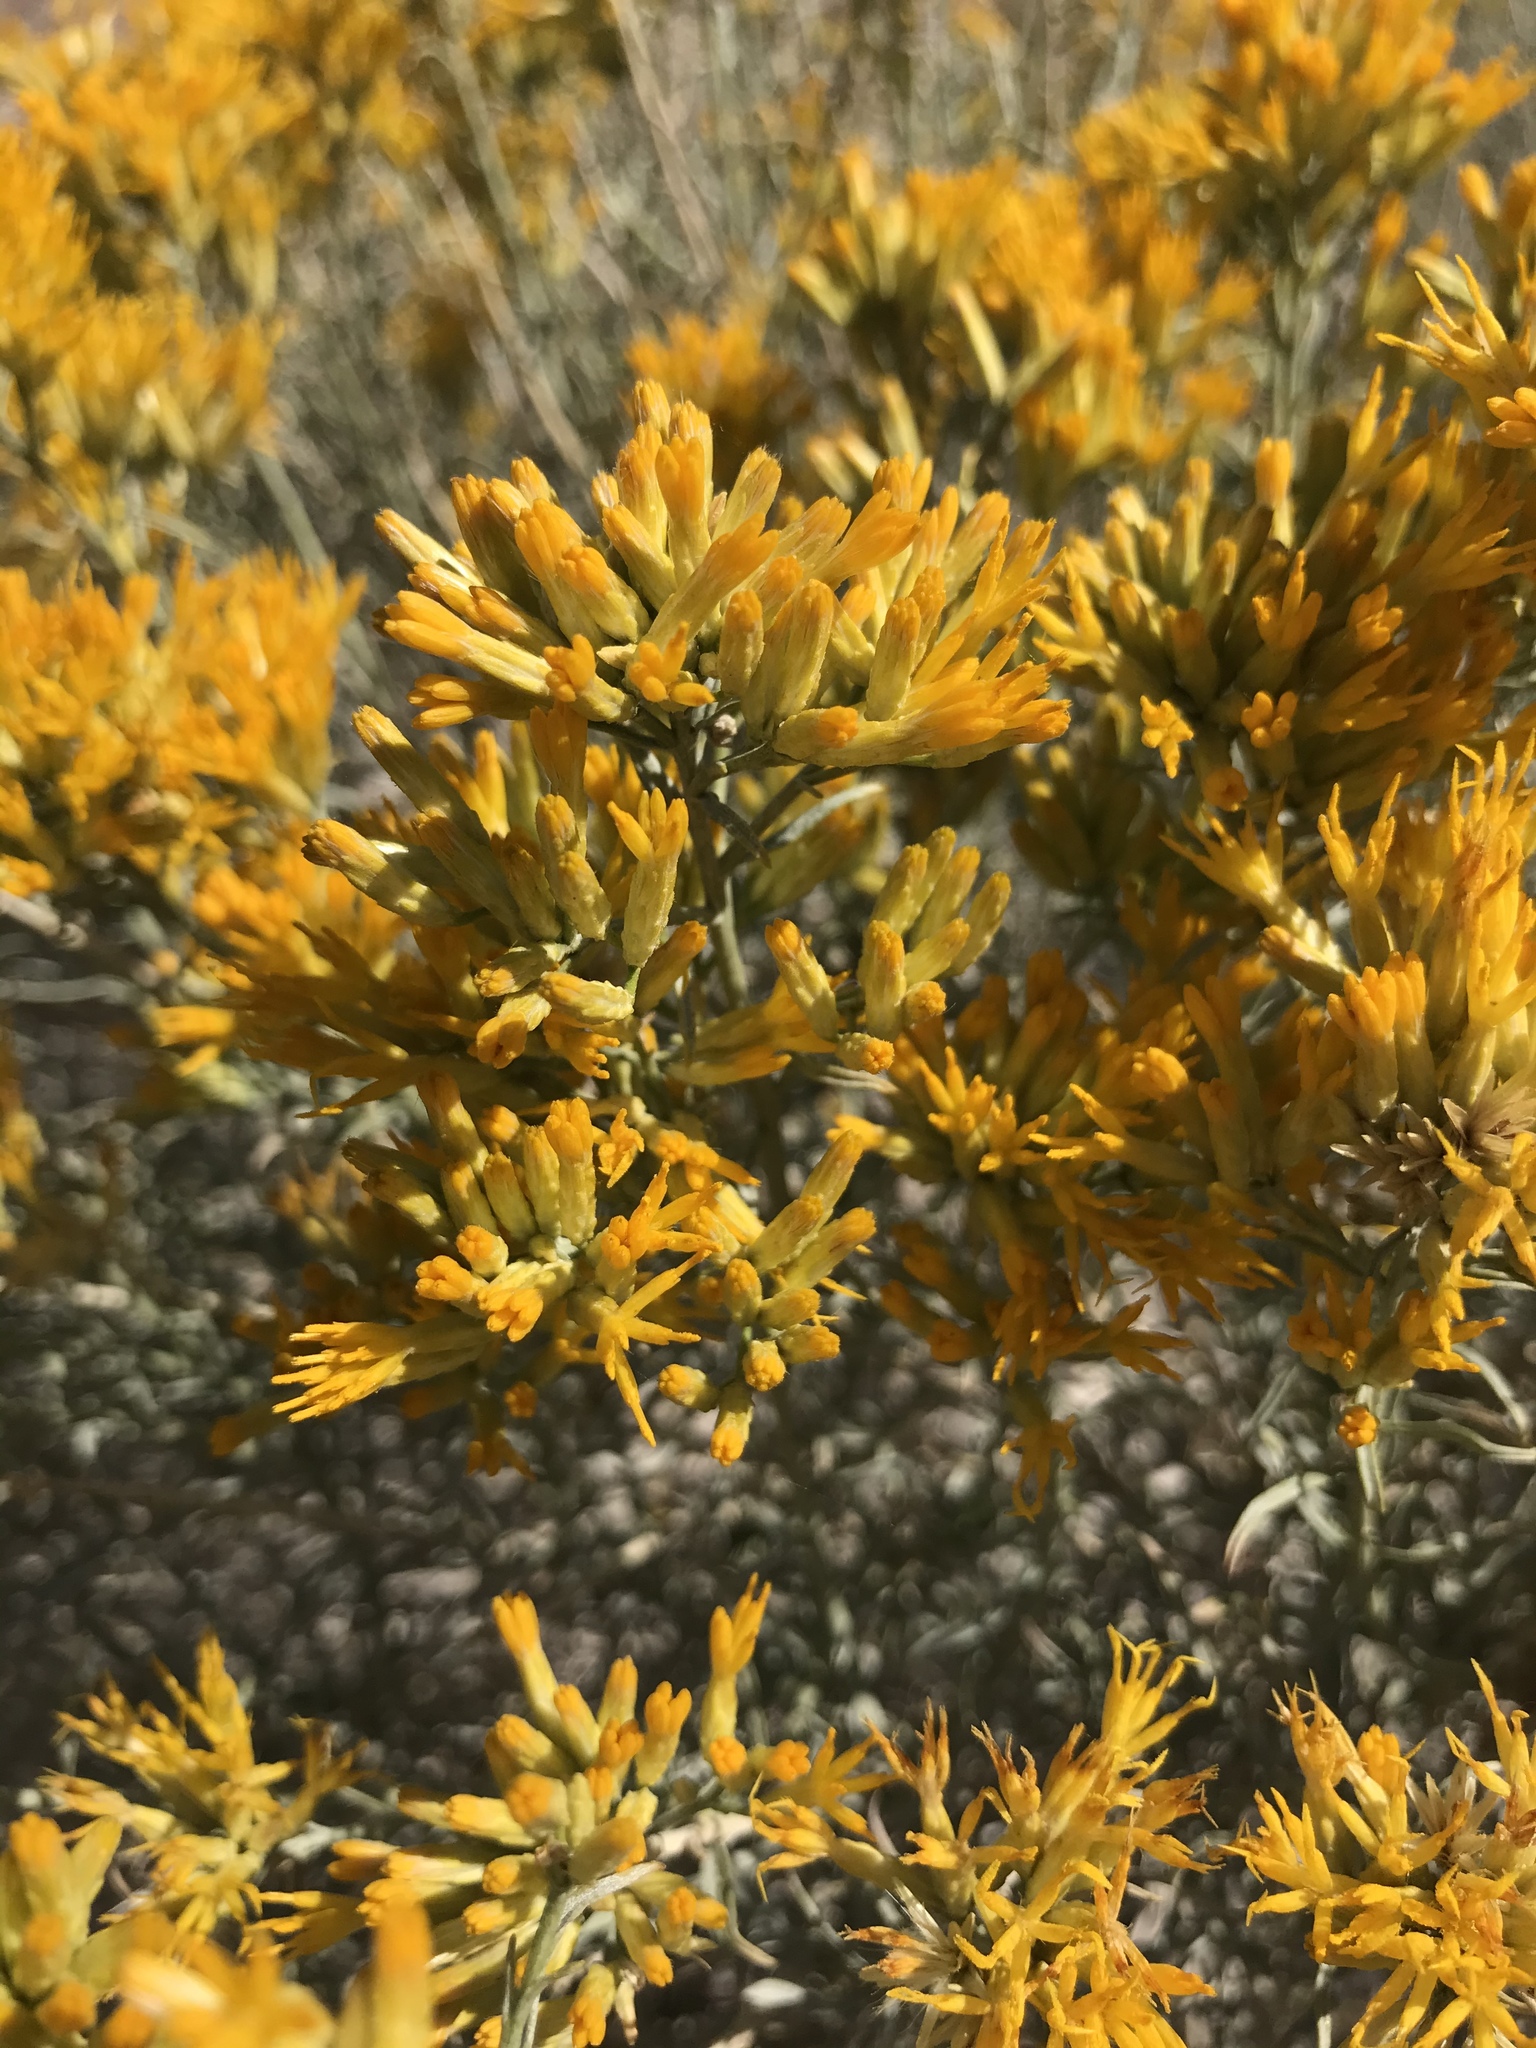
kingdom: Plantae
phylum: Tracheophyta
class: Magnoliopsida
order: Asterales
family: Asteraceae
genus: Ericameria
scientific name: Ericameria nauseosa
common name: Rubber rabbitbrush
